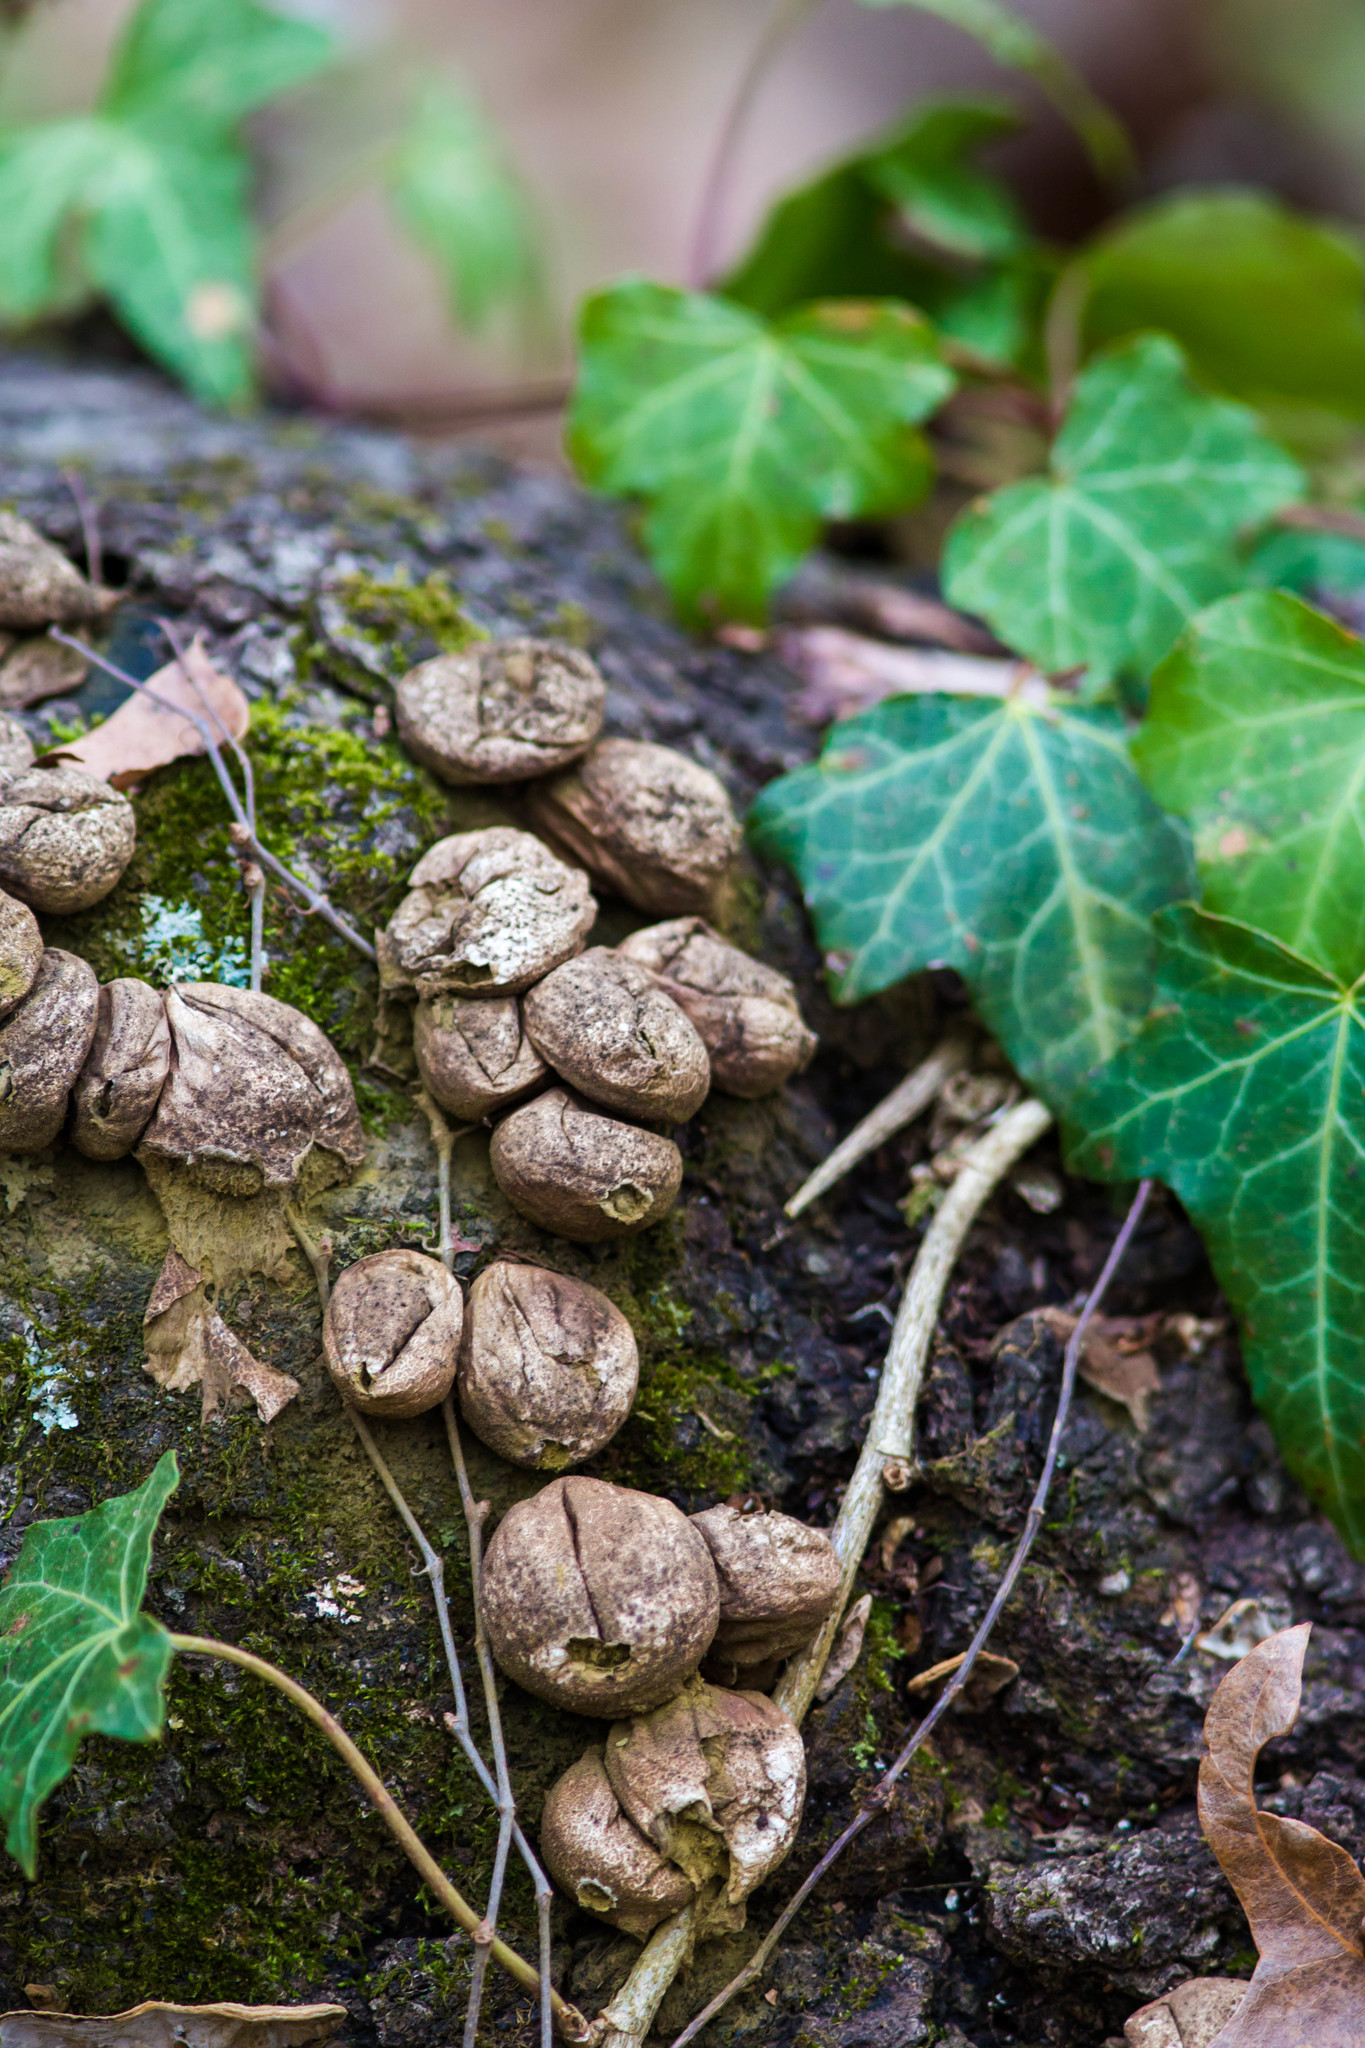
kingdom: Fungi
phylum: Basidiomycota
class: Agaricomycetes
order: Agaricales
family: Lycoperdaceae
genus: Apioperdon
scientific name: Apioperdon pyriforme
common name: Pear-shaped puffball
